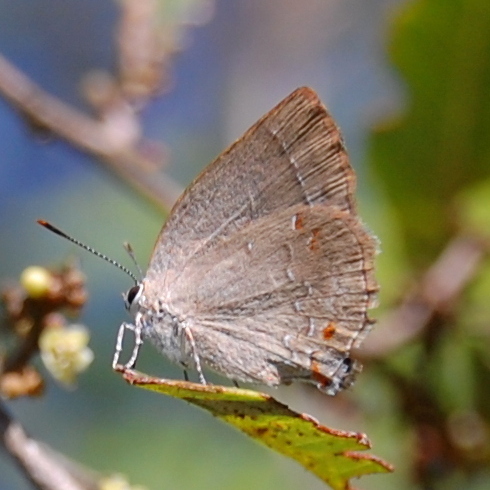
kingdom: Animalia
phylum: Arthropoda
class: Insecta
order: Lepidoptera
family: Lycaenidae
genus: Magnastigma
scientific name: Magnastigma hirsuta
